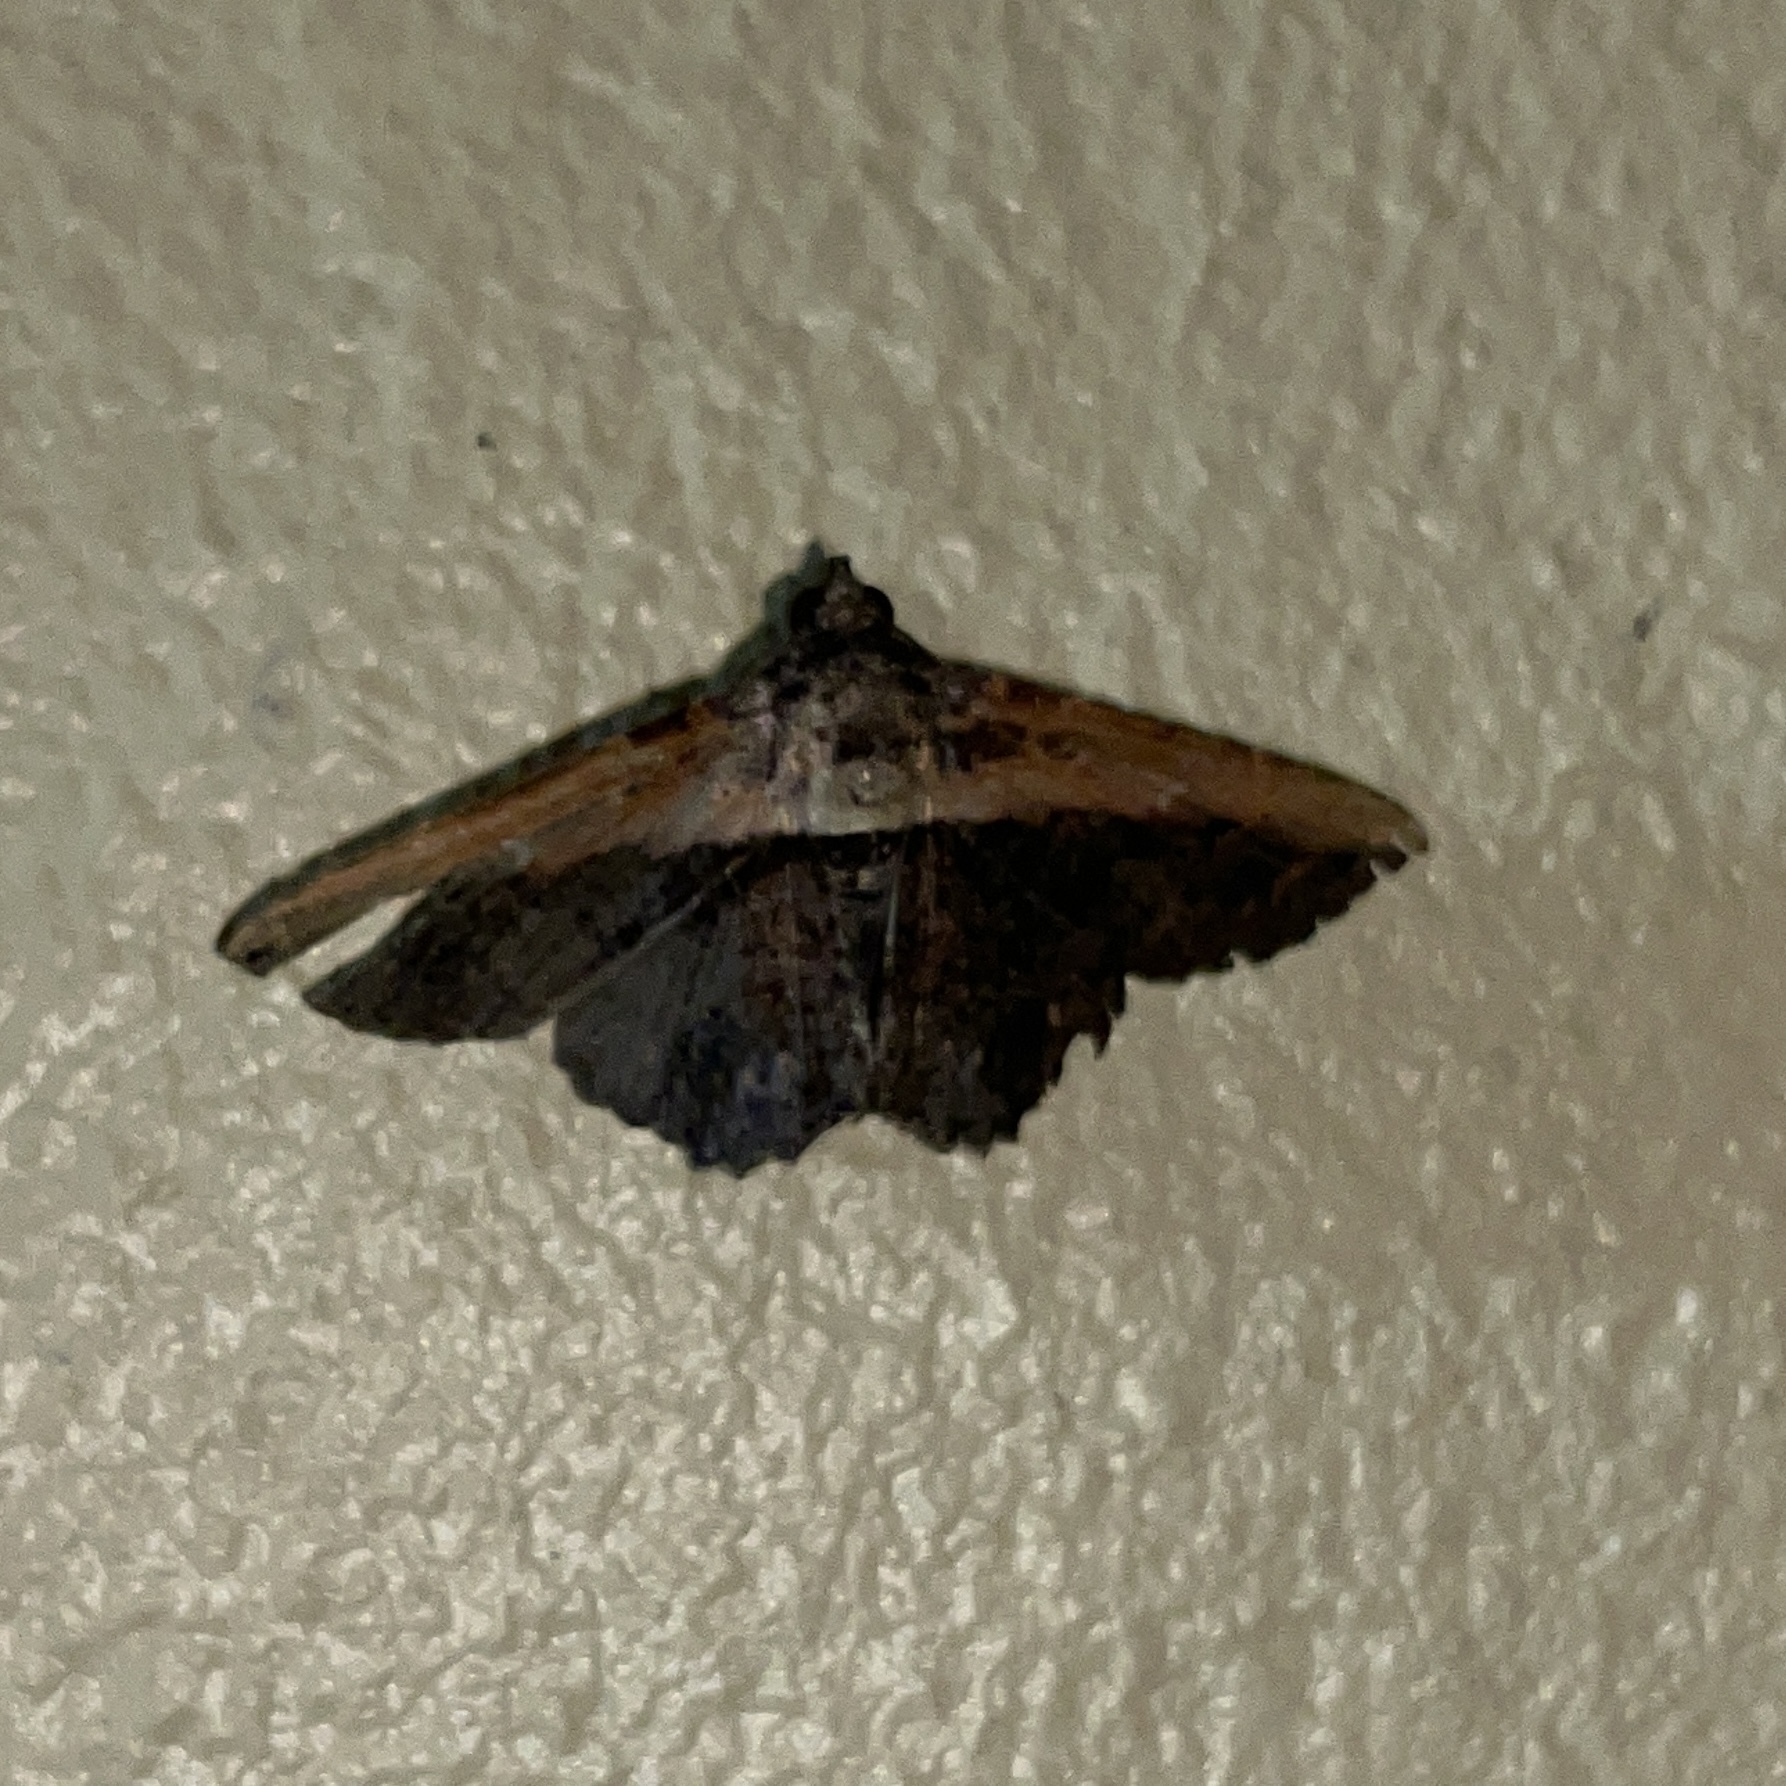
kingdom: Animalia
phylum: Arthropoda
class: Insecta
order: Lepidoptera
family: Erebidae
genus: Selenisa
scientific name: Selenisa lanipes
